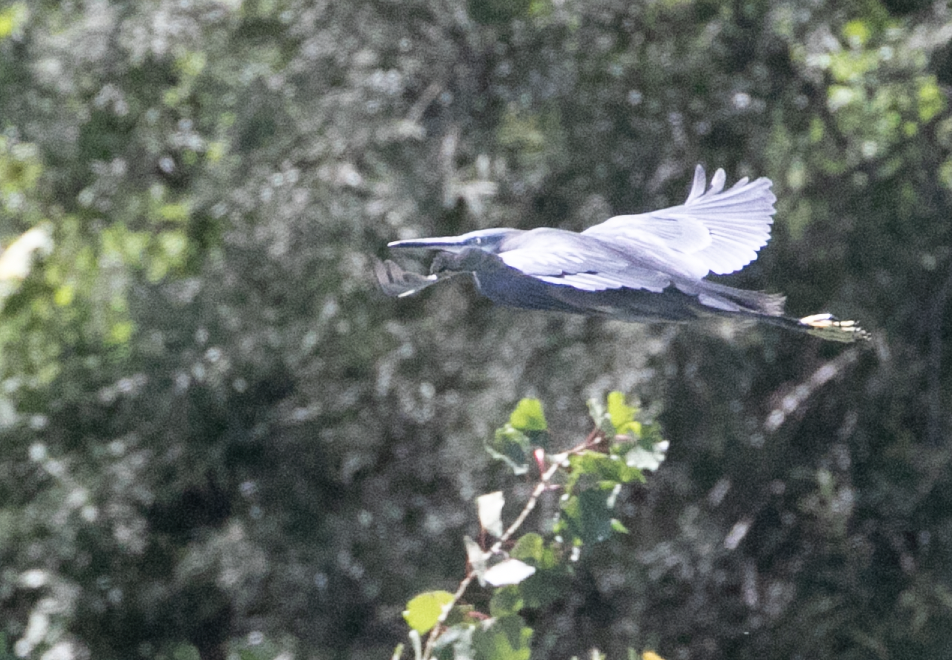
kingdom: Animalia
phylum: Chordata
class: Aves
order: Pelecaniformes
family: Ardeidae
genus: Egretta
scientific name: Egretta gularis
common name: Western reef-heron
